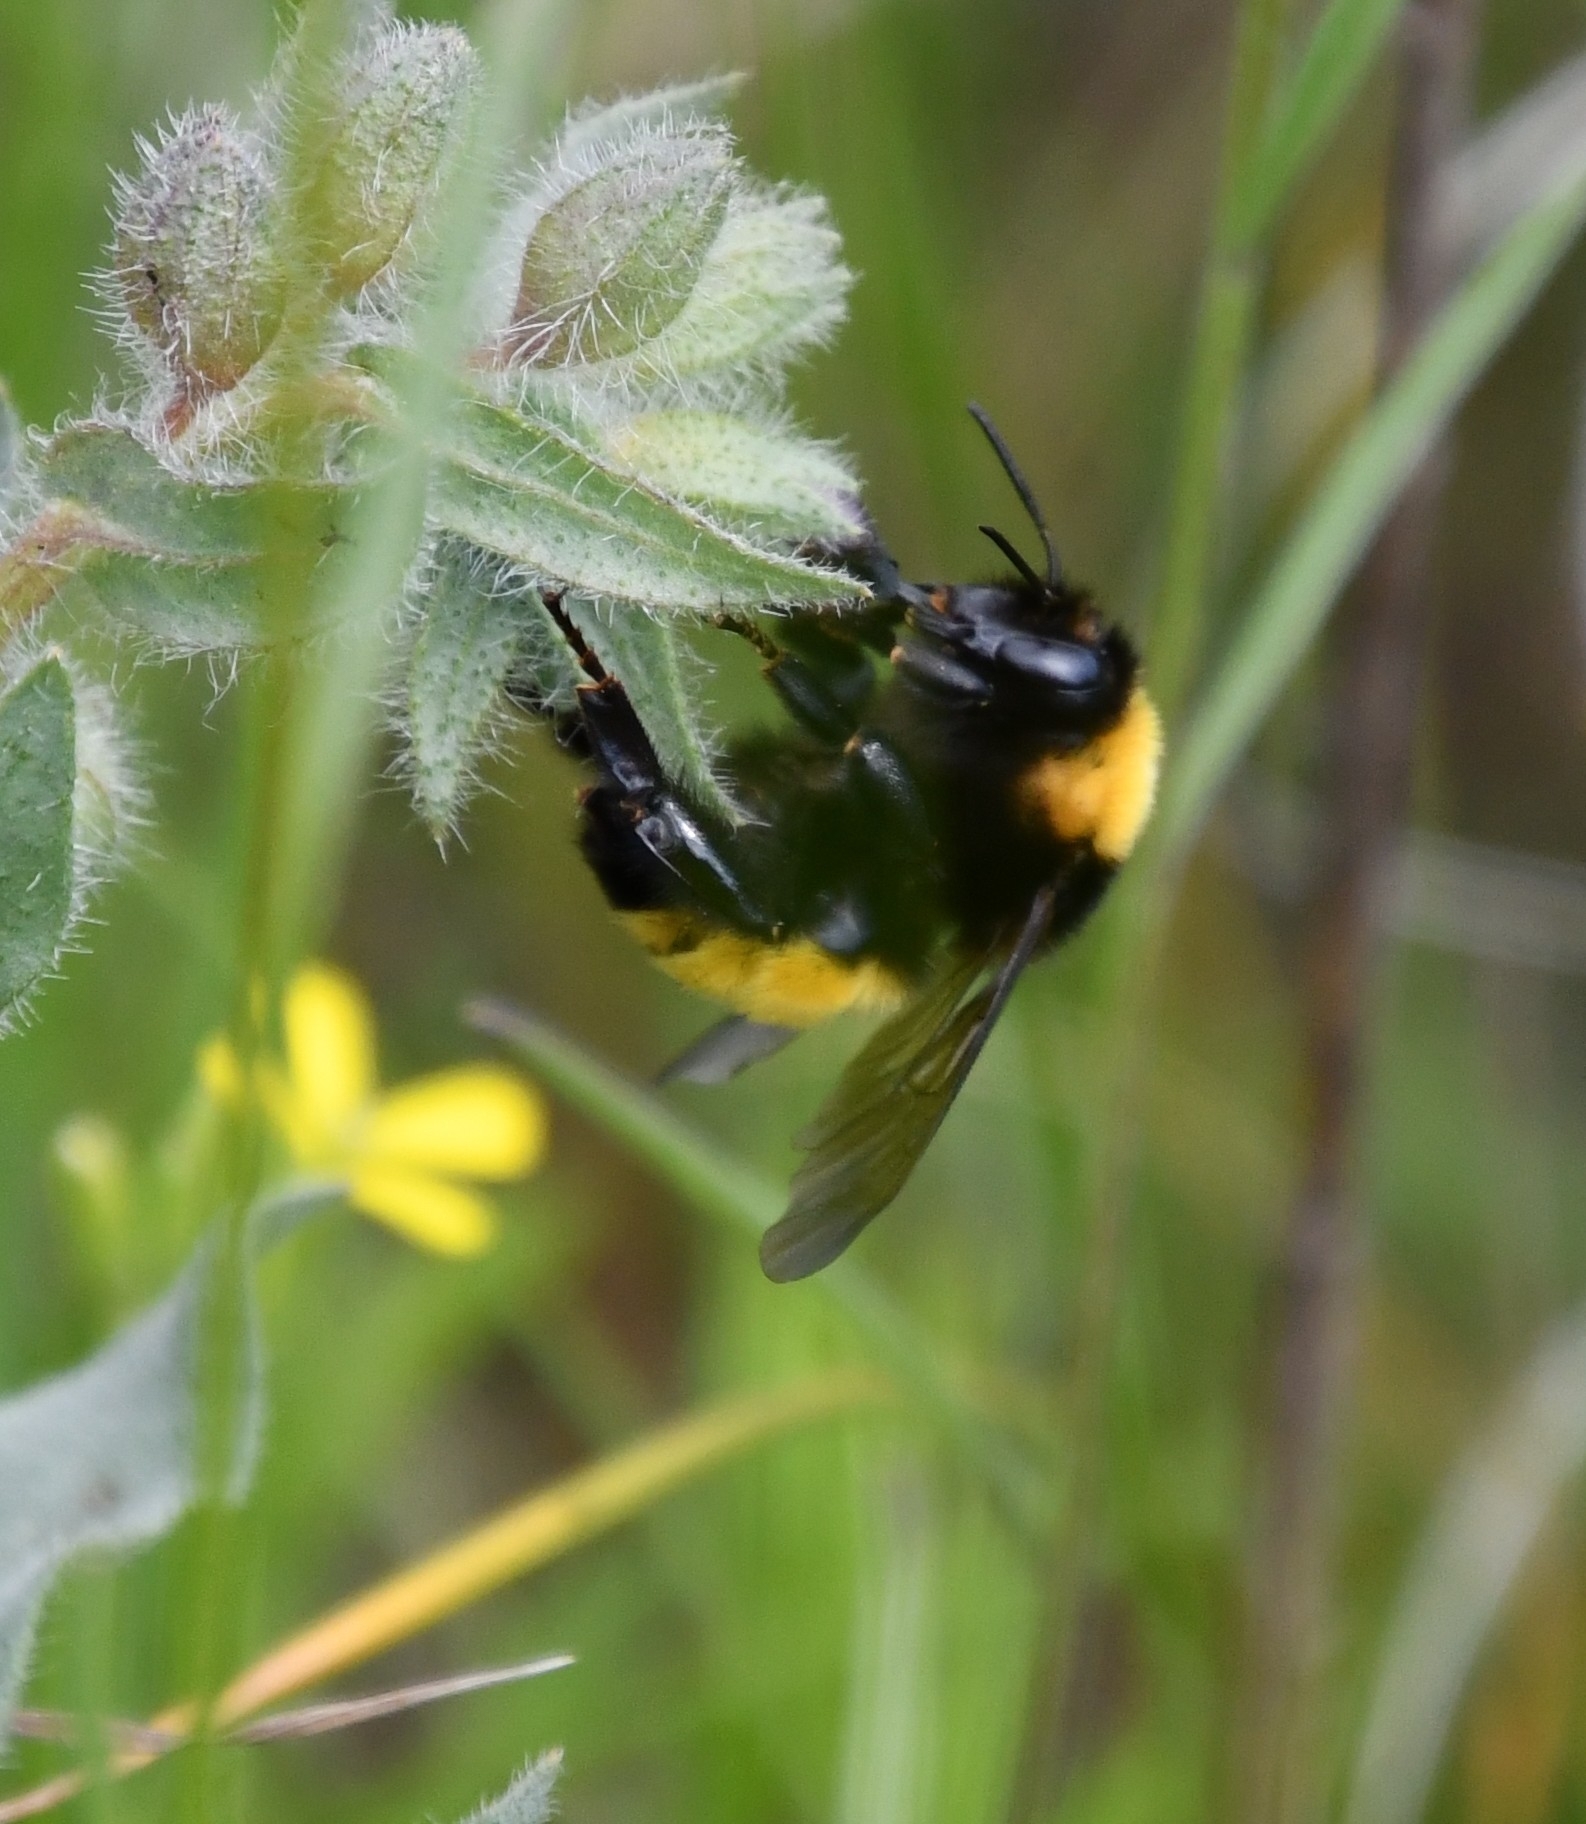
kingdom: Animalia
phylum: Arthropoda
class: Insecta
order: Hymenoptera
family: Apidae
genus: Bombus
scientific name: Bombus zonatus
